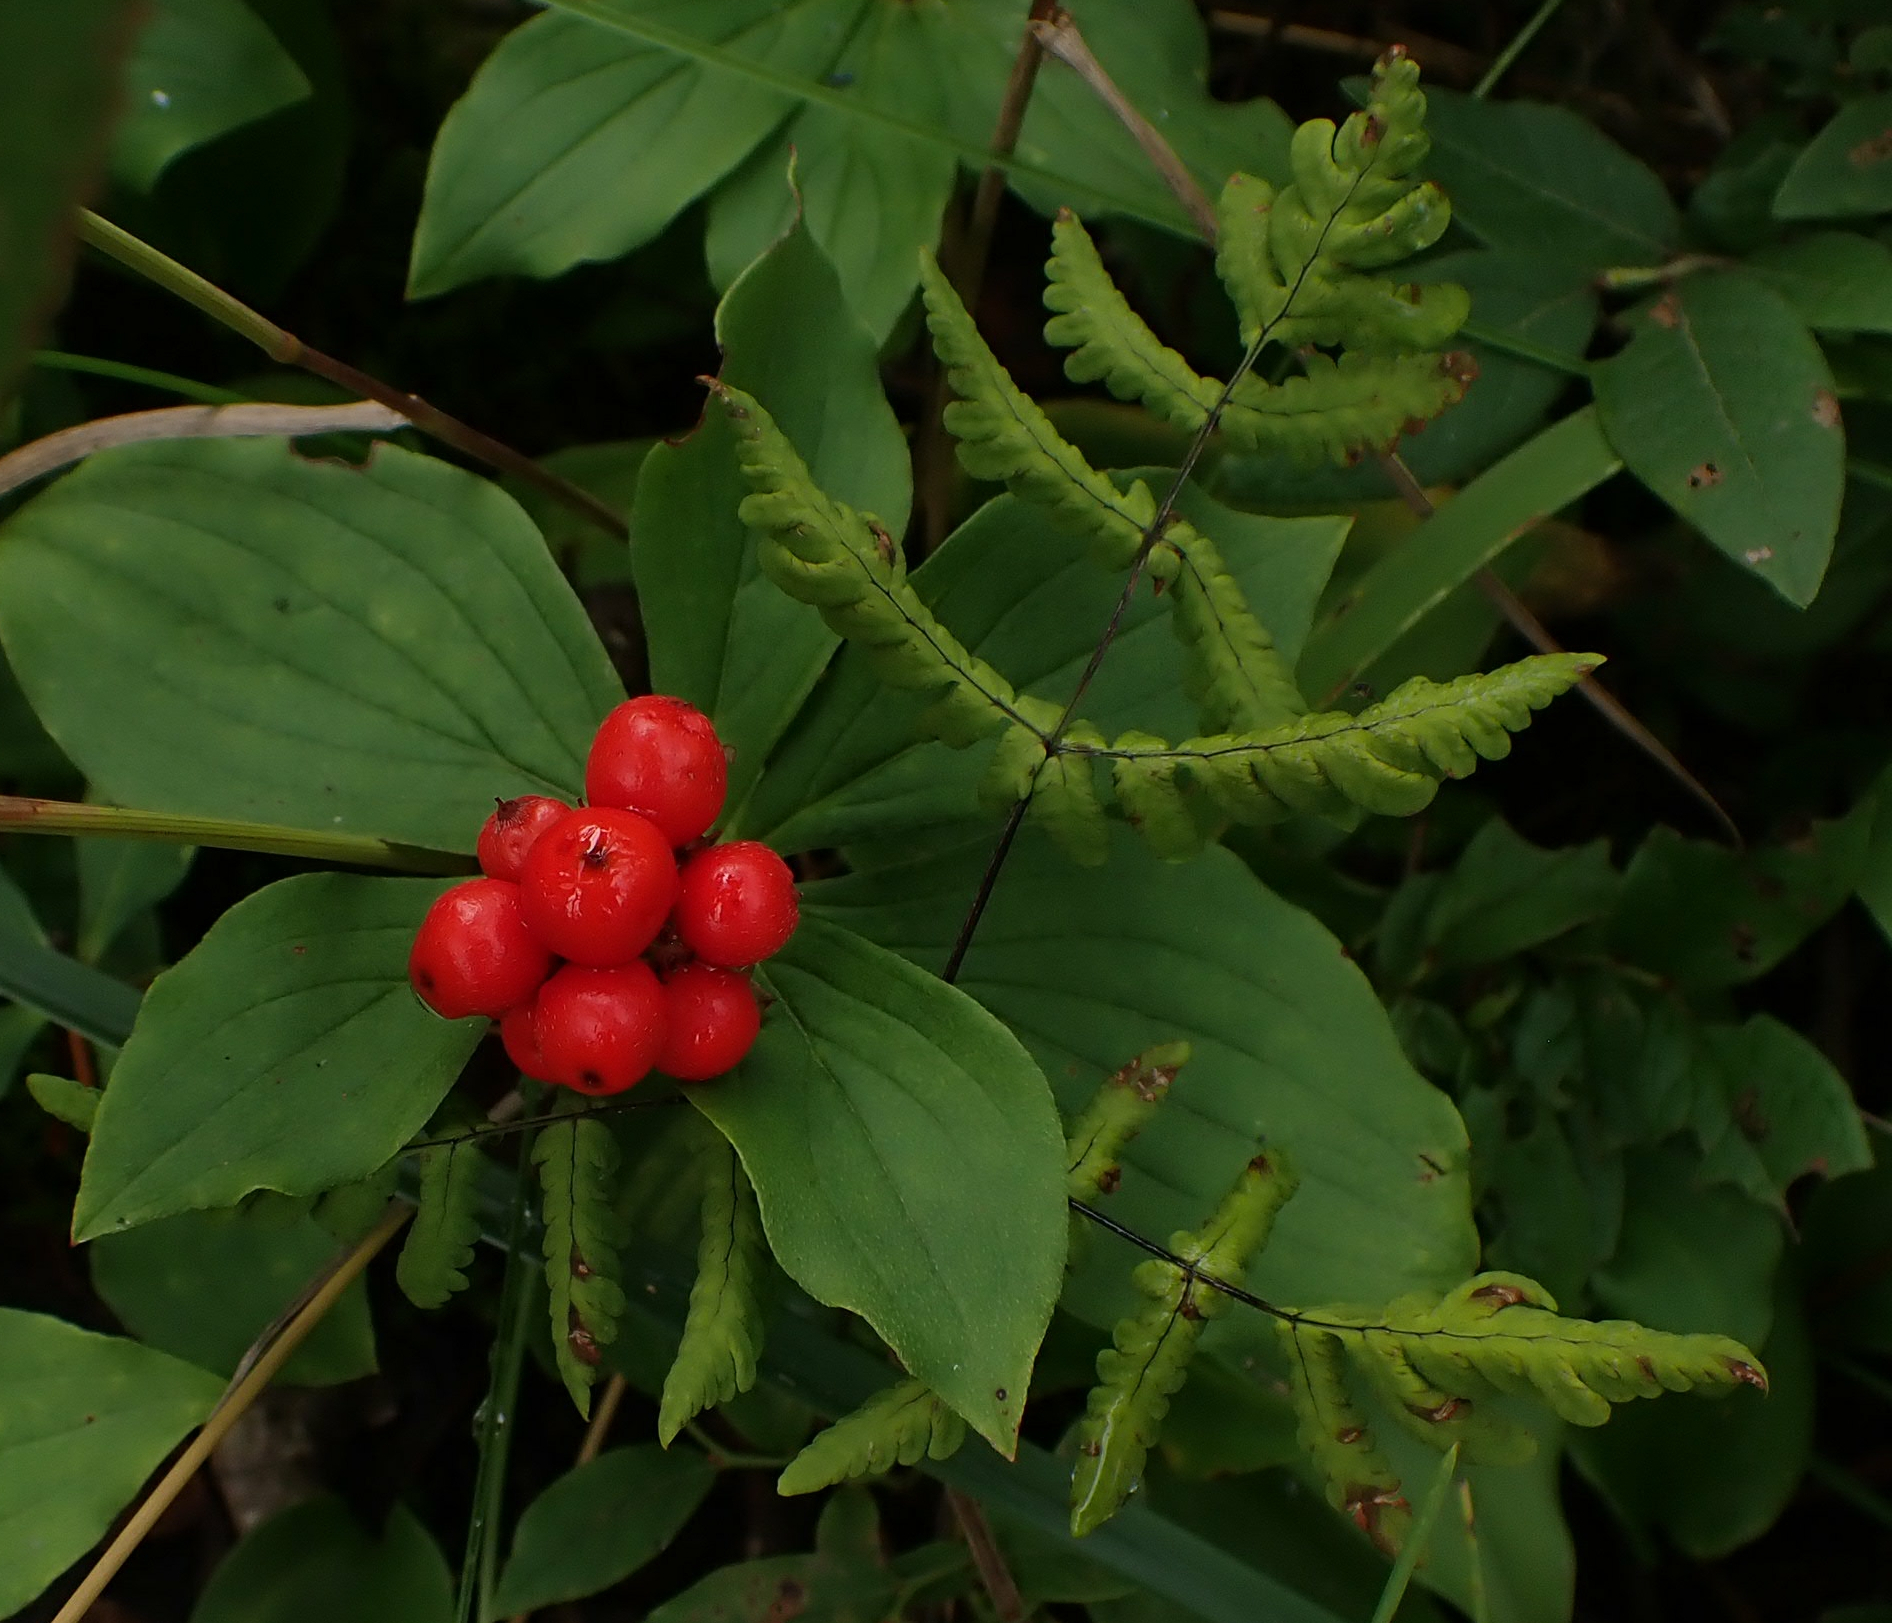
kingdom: Plantae
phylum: Tracheophyta
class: Polypodiopsida
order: Polypodiales
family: Cystopteridaceae
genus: Gymnocarpium
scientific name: Gymnocarpium dryopteris
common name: Oak fern
